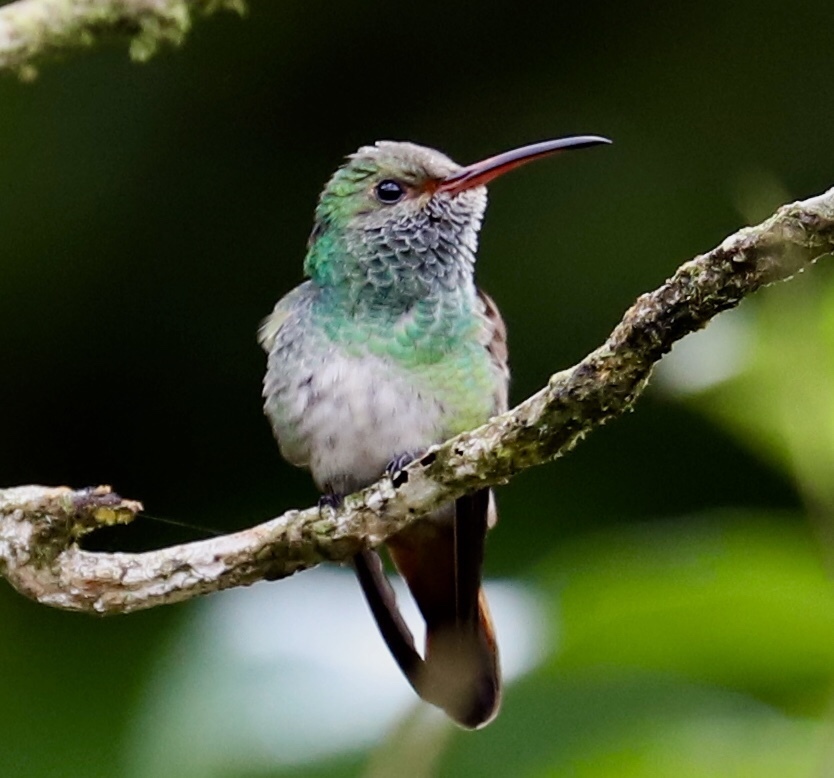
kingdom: Animalia
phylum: Chordata
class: Aves
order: Apodiformes
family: Trochilidae
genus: Amazilia
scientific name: Amazilia tzacatl
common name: Rufous-tailed hummingbird
